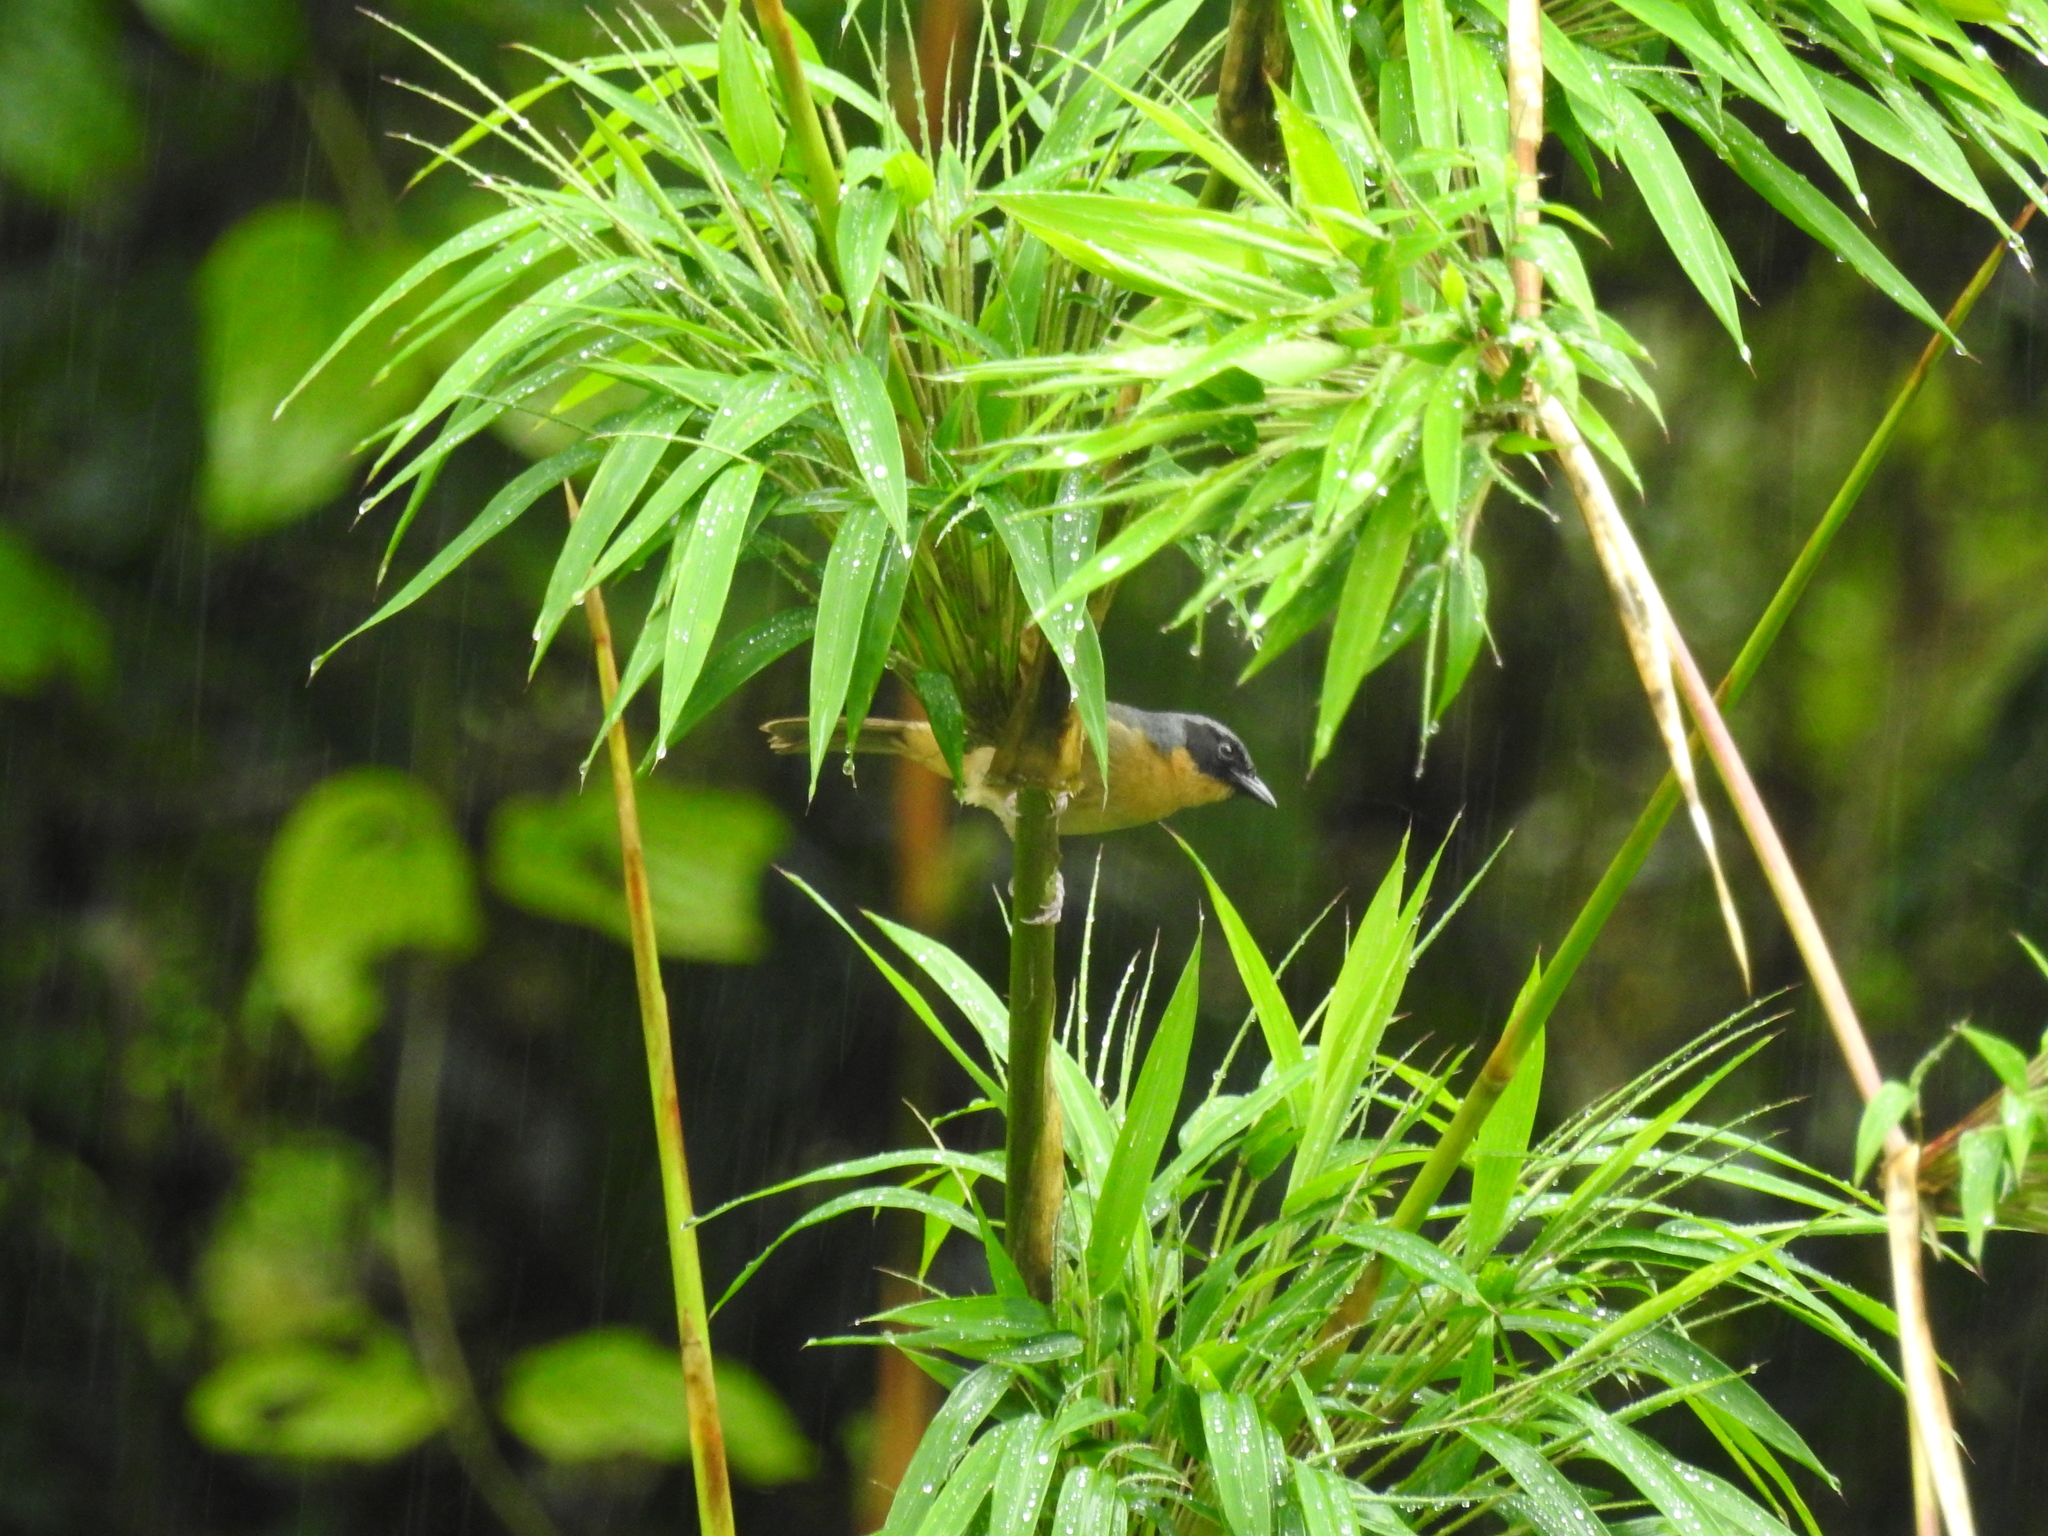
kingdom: Animalia
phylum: Chordata
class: Aves
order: Passeriformes
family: Thraupidae
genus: Sphenopsis
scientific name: Sphenopsis melanotis
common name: Black-eared hemispingus
